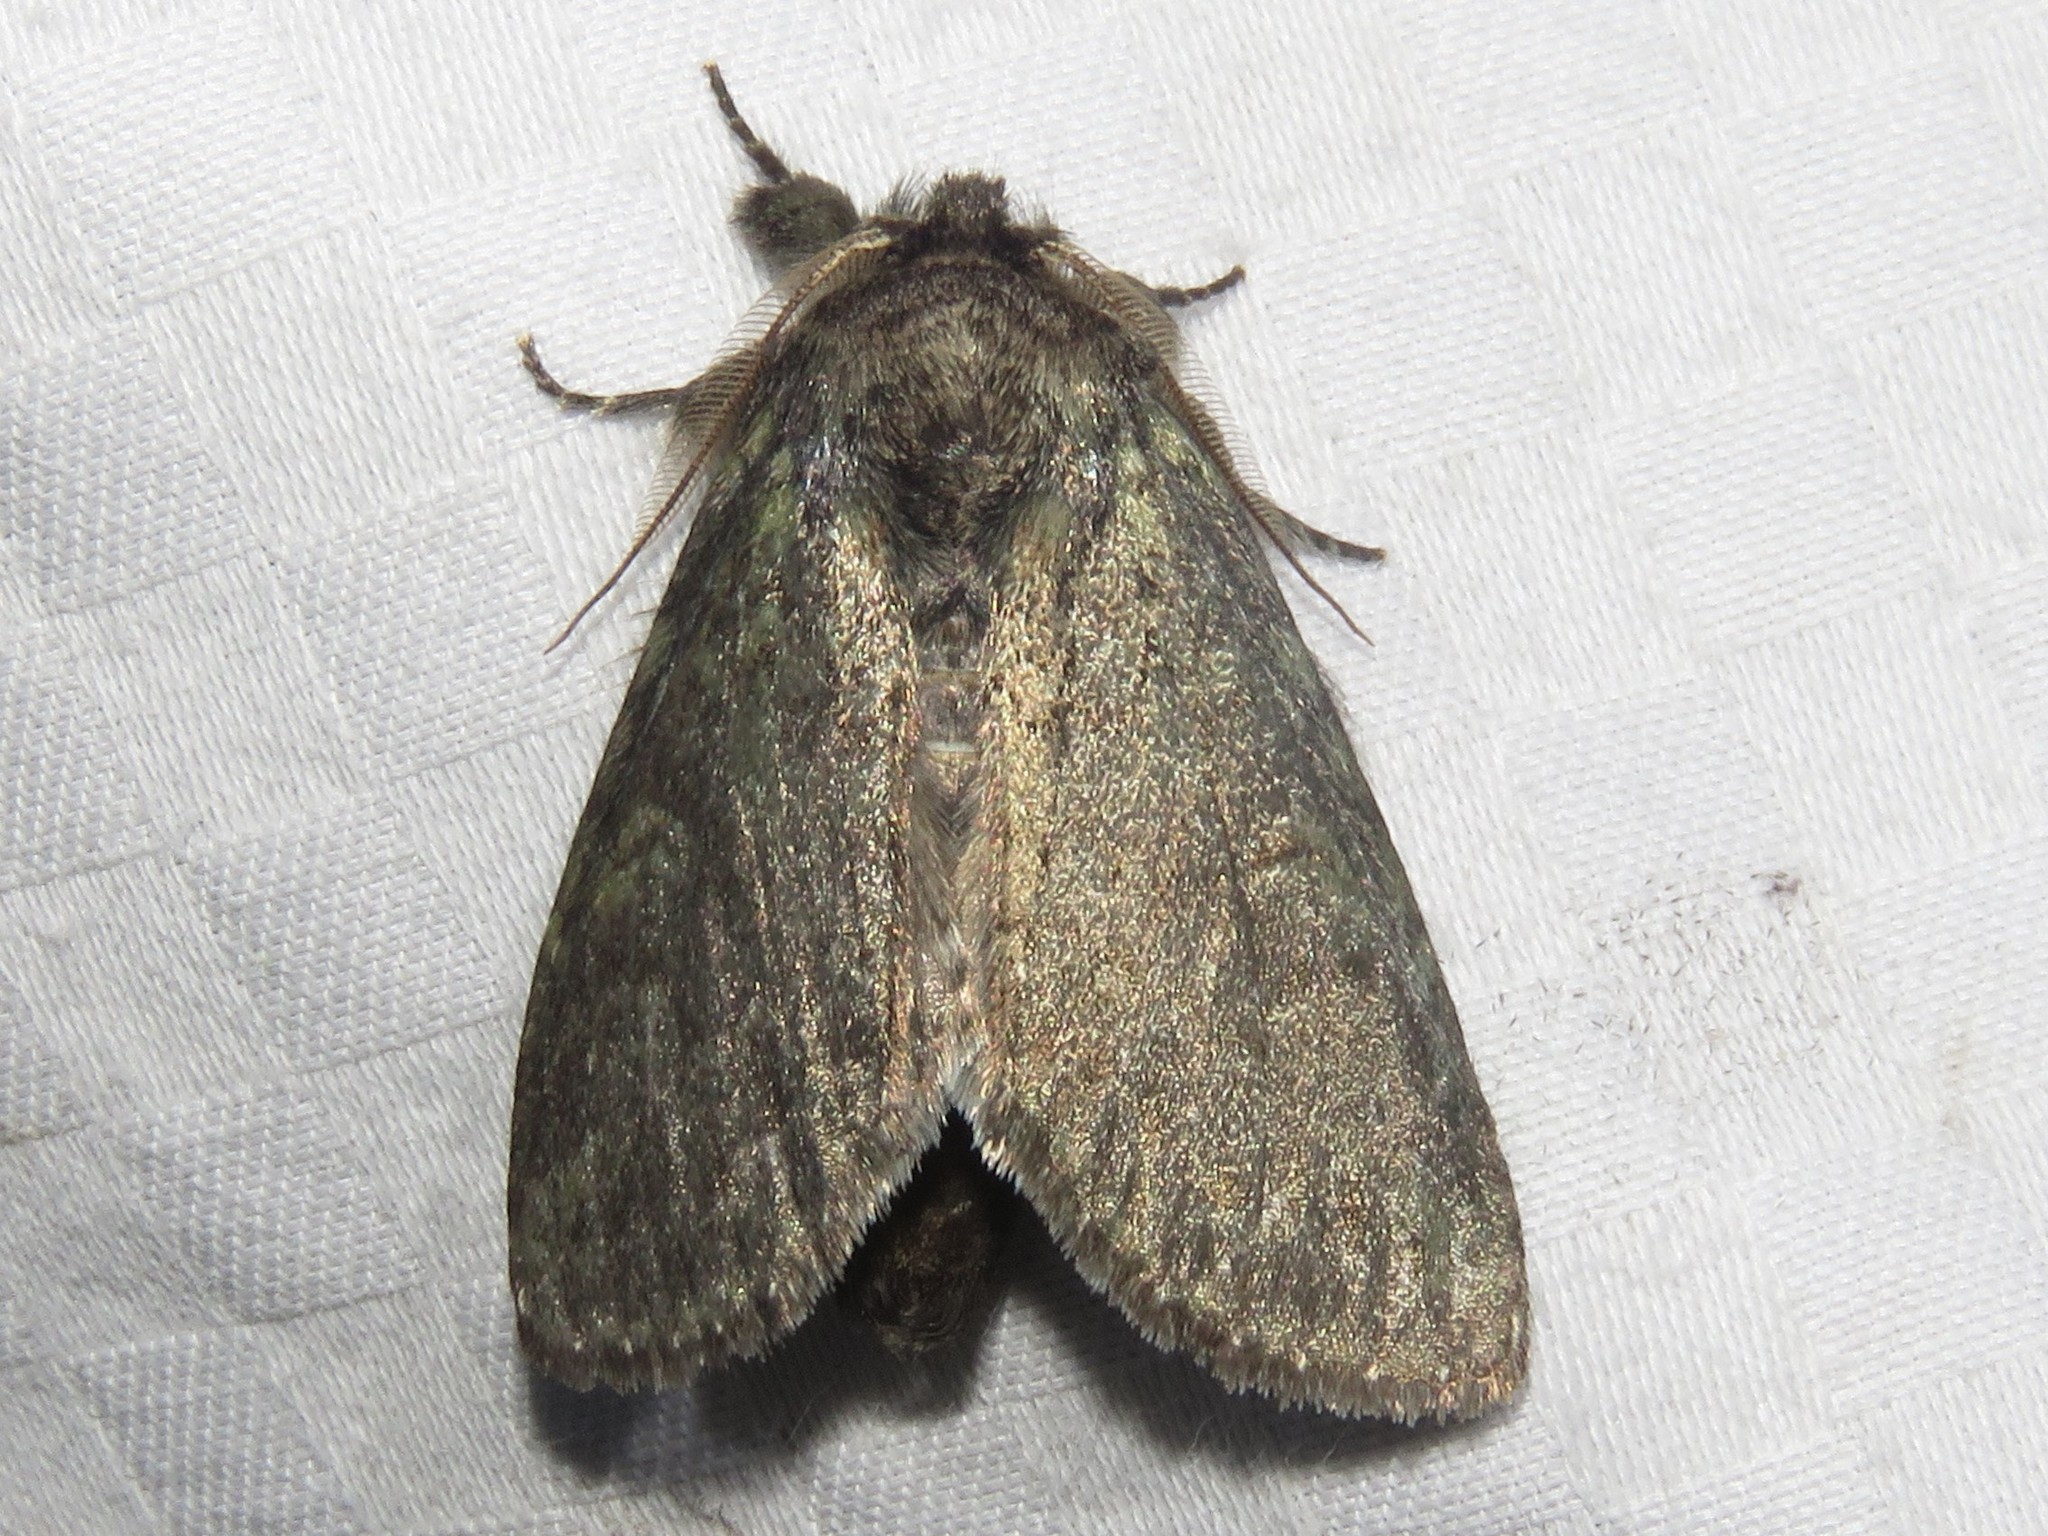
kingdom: Animalia
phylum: Arthropoda
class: Insecta
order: Lepidoptera
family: Notodontidae
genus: Disphragis
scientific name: Disphragis Cecrita guttivitta
